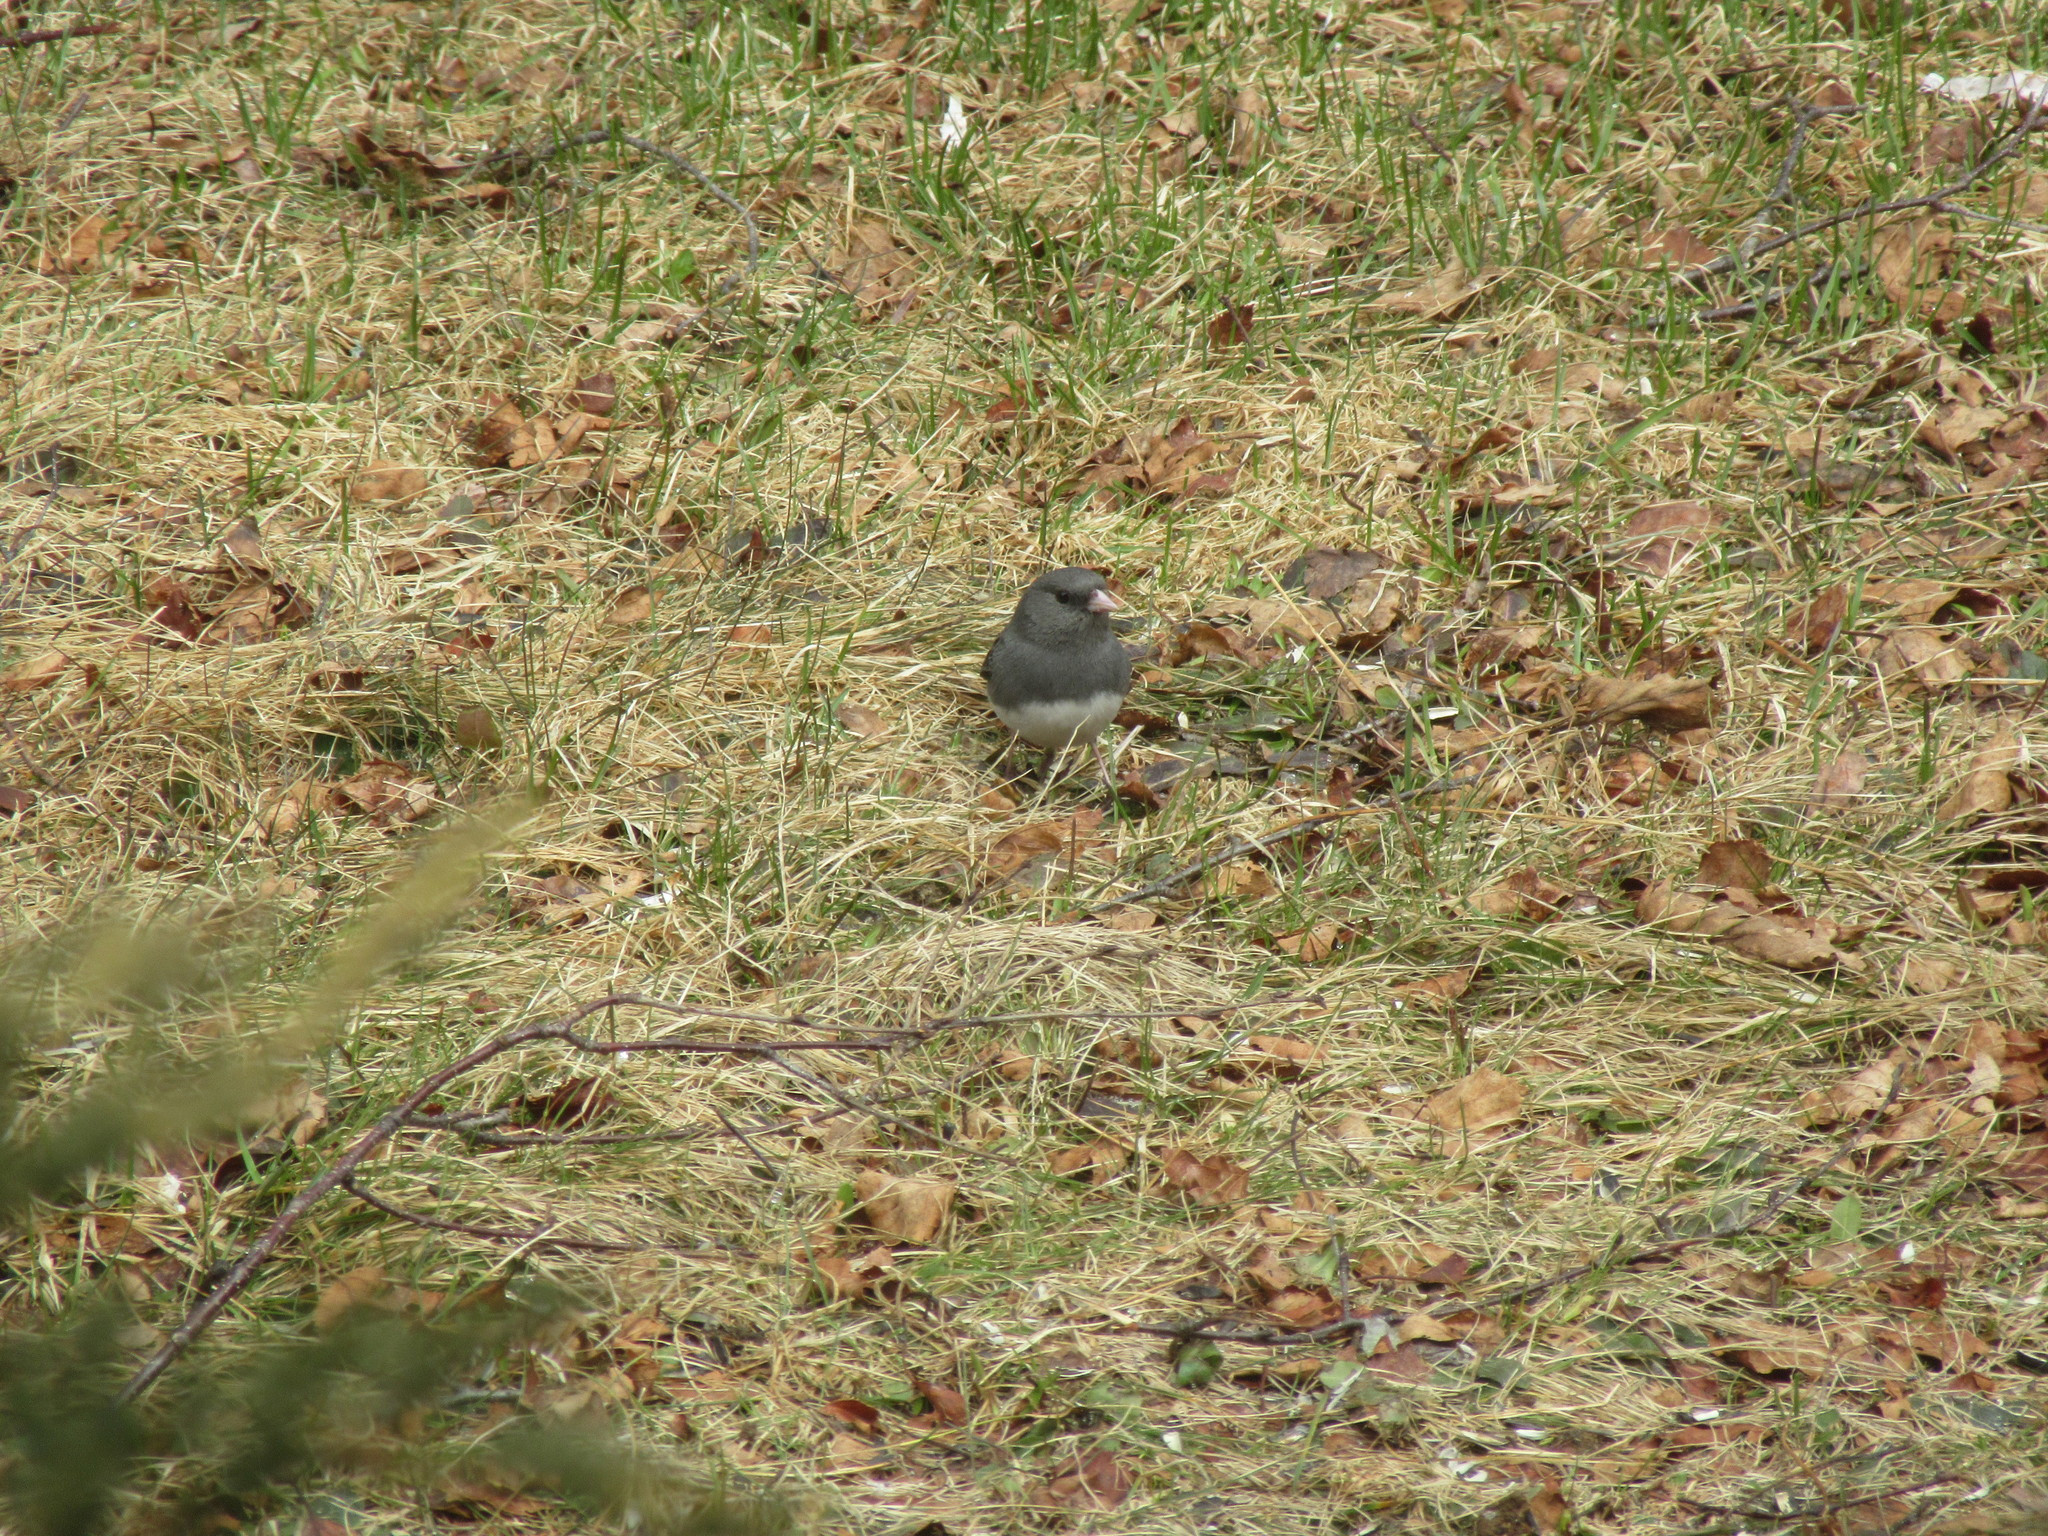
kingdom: Animalia
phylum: Chordata
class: Aves
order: Passeriformes
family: Passerellidae
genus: Junco
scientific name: Junco hyemalis
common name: Dark-eyed junco
